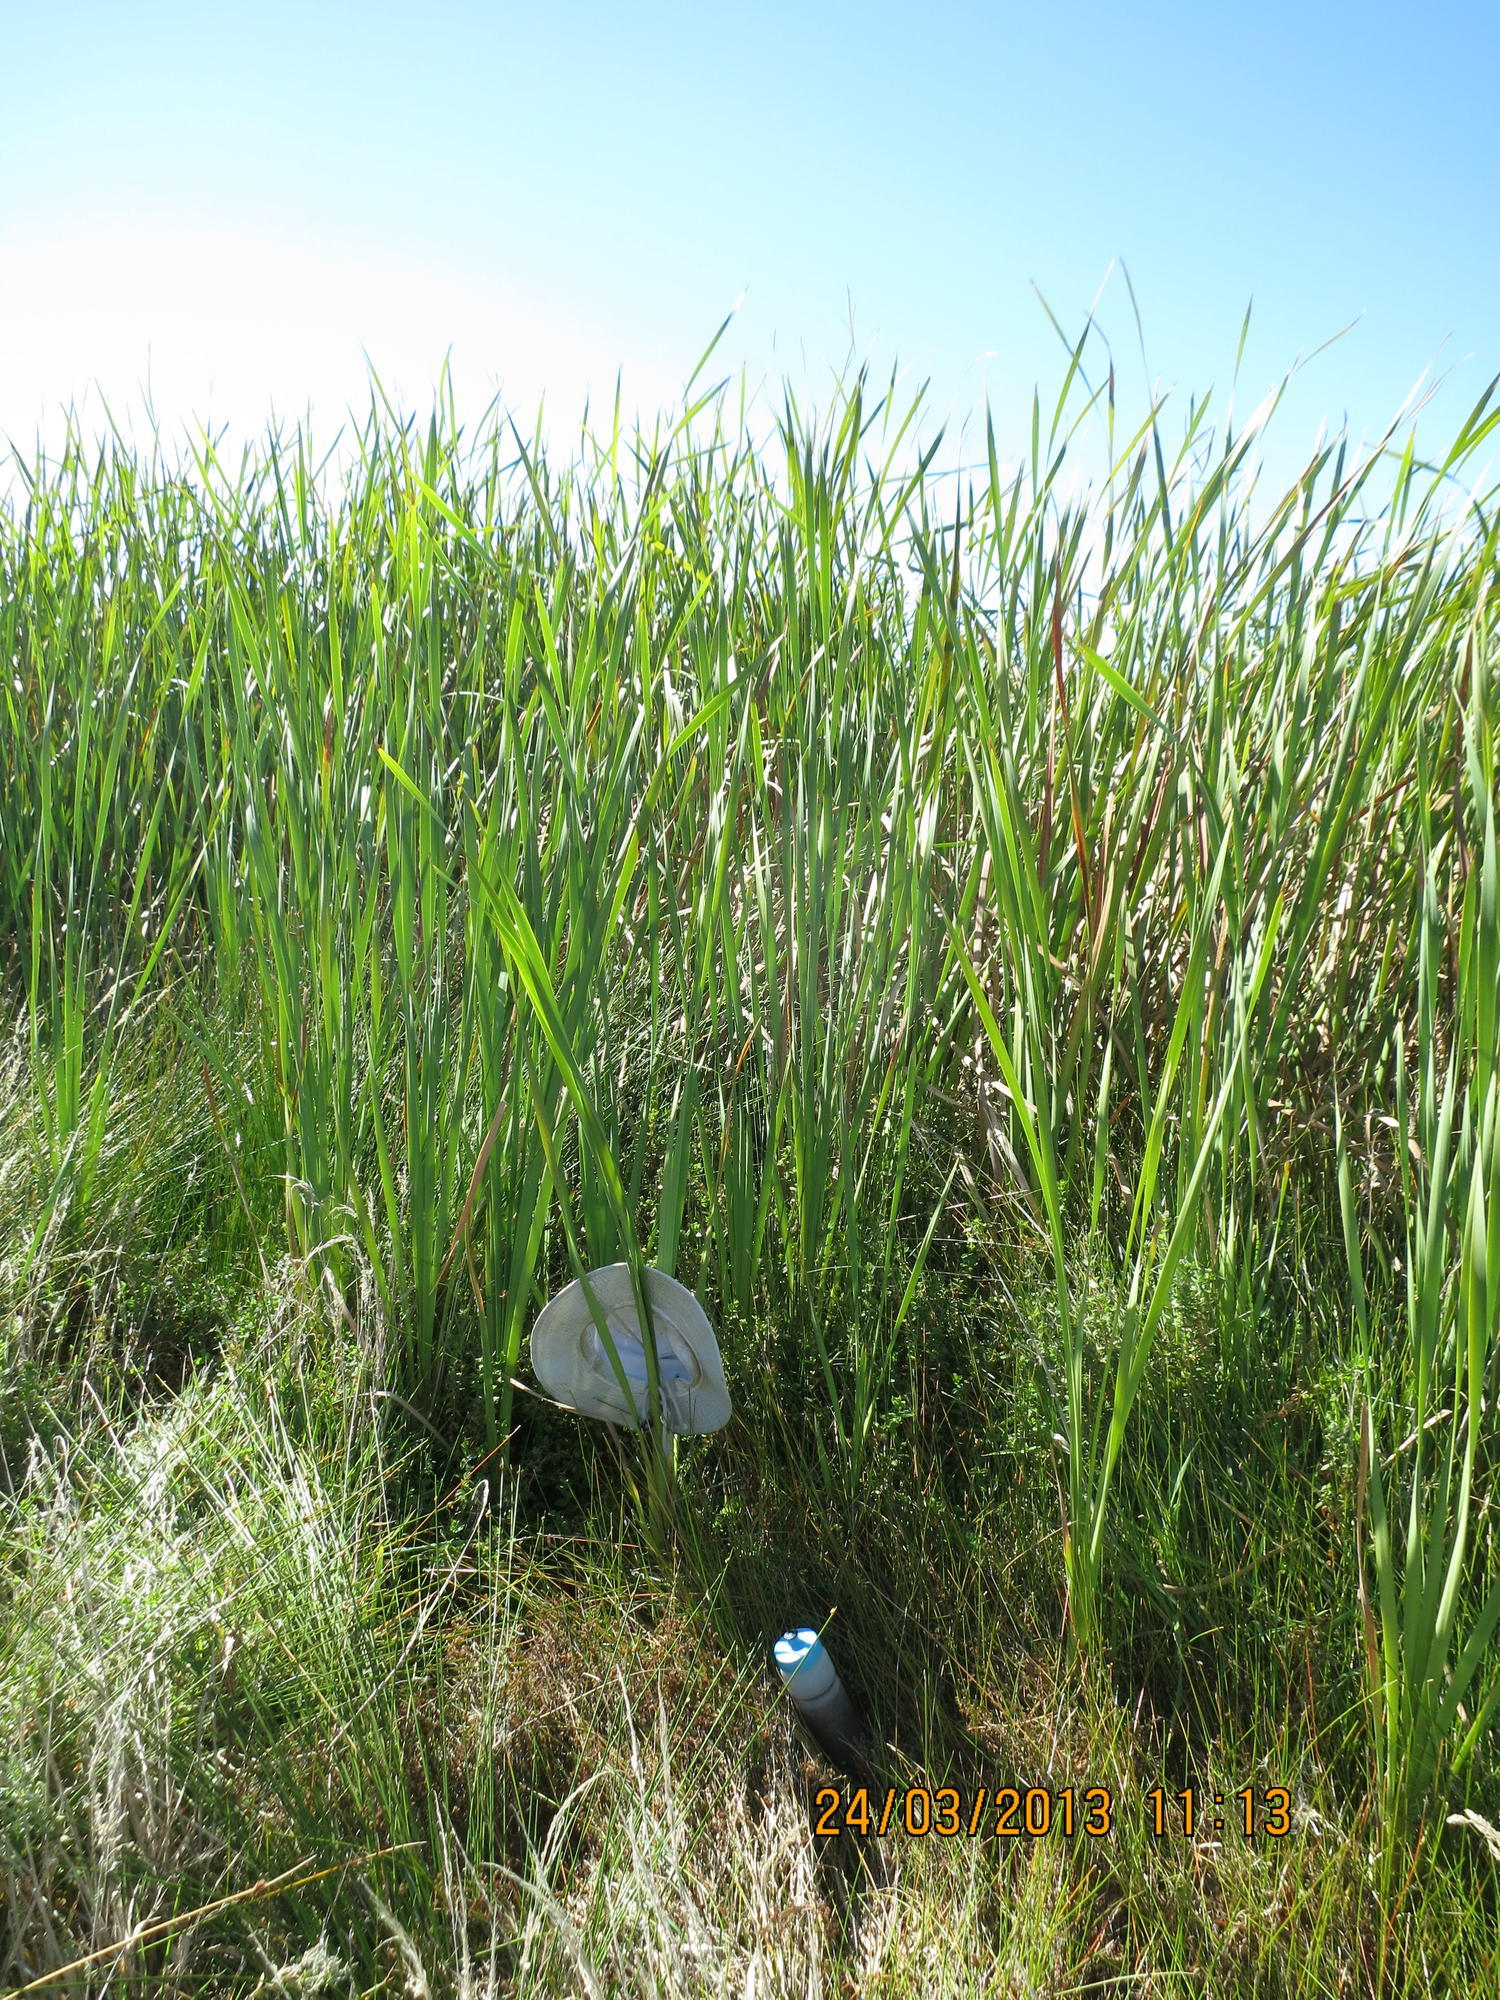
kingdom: Plantae
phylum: Tracheophyta
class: Liliopsida
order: Poales
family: Typhaceae
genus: Typha
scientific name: Typha orientalis
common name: Bullrush
